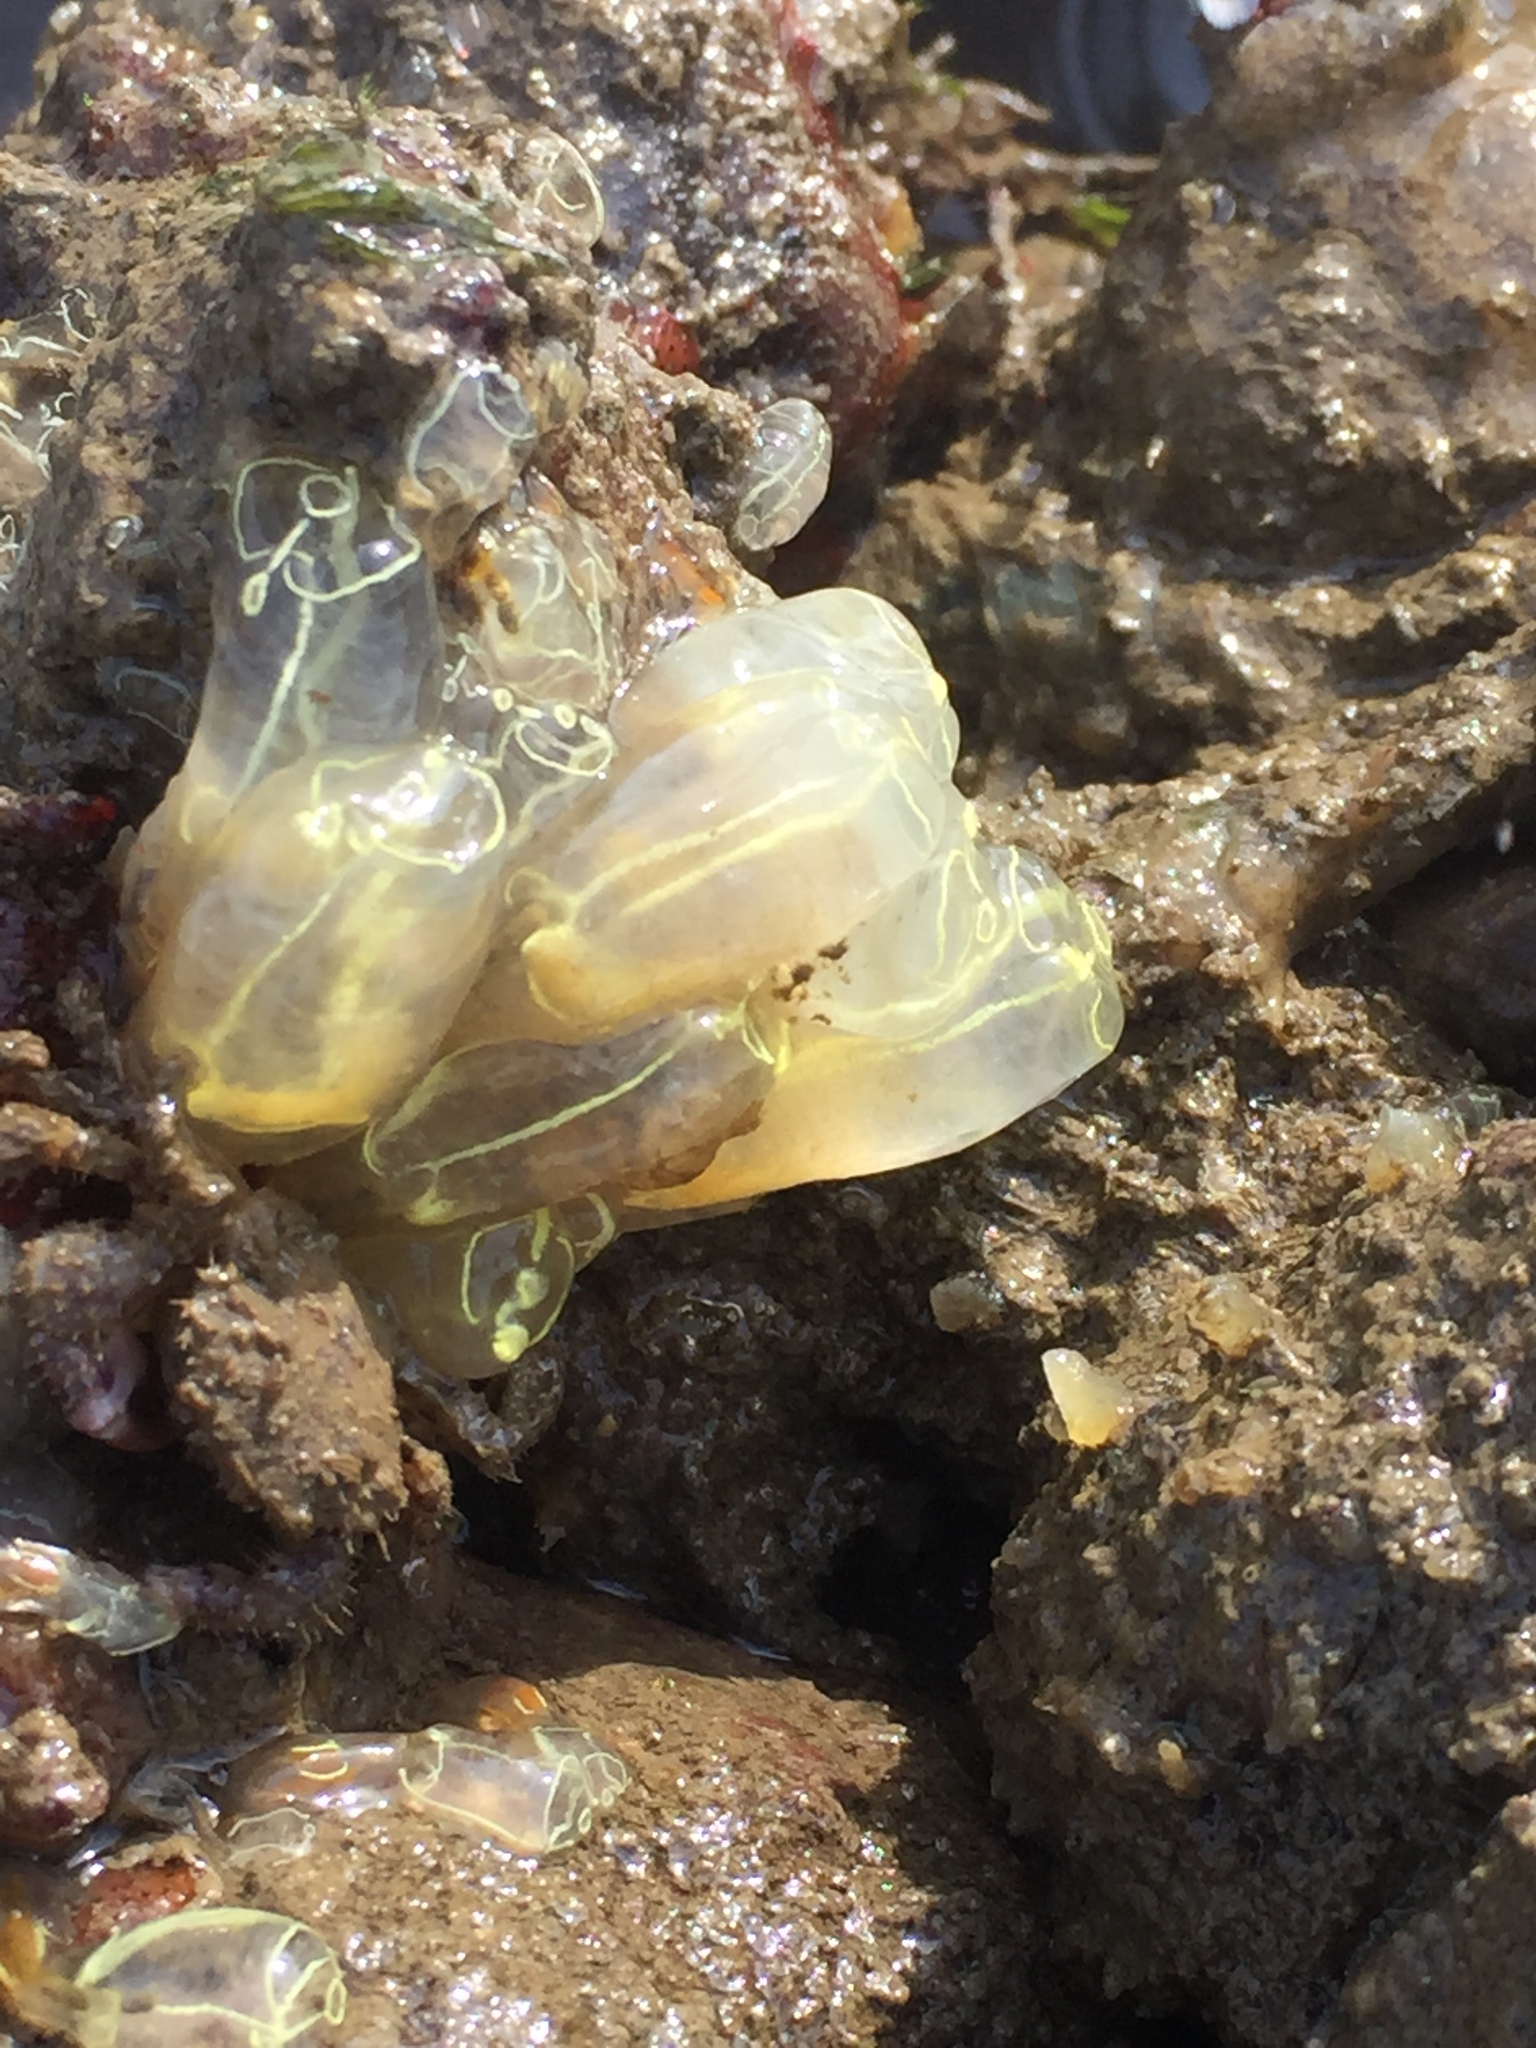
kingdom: Animalia
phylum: Chordata
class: Ascidiacea
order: Aplousobranchia
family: Clavelinidae
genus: Clavelina
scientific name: Clavelina lepadiformis
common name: Light bulb tunicate
